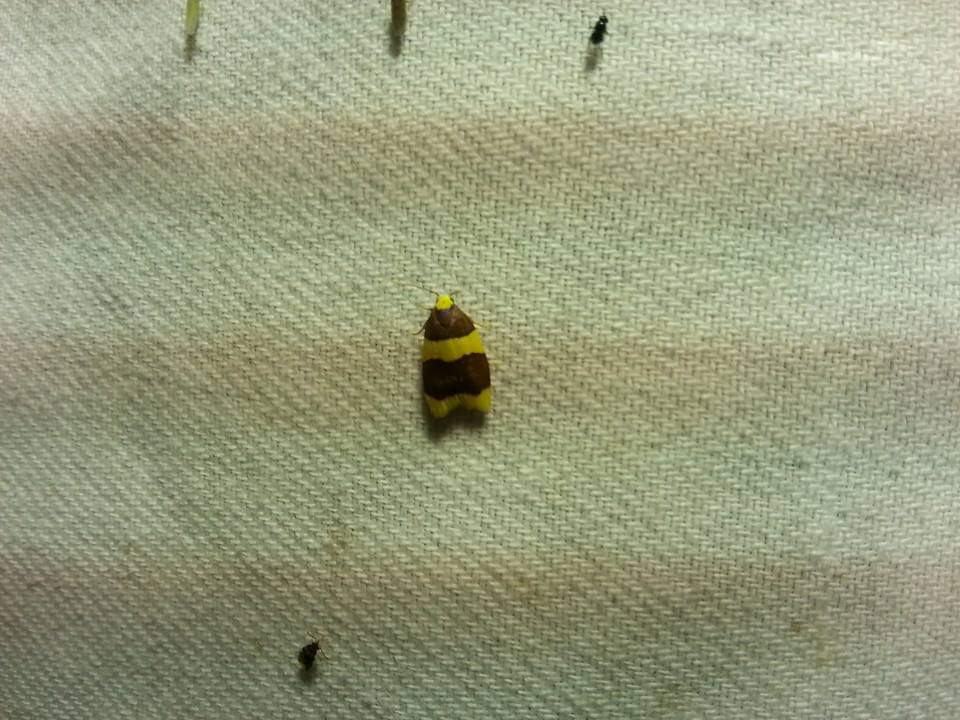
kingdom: Animalia
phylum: Arthropoda
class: Insecta
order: Lepidoptera
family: Erebidae
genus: Heterallactis
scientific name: Heterallactis stenochrysa
